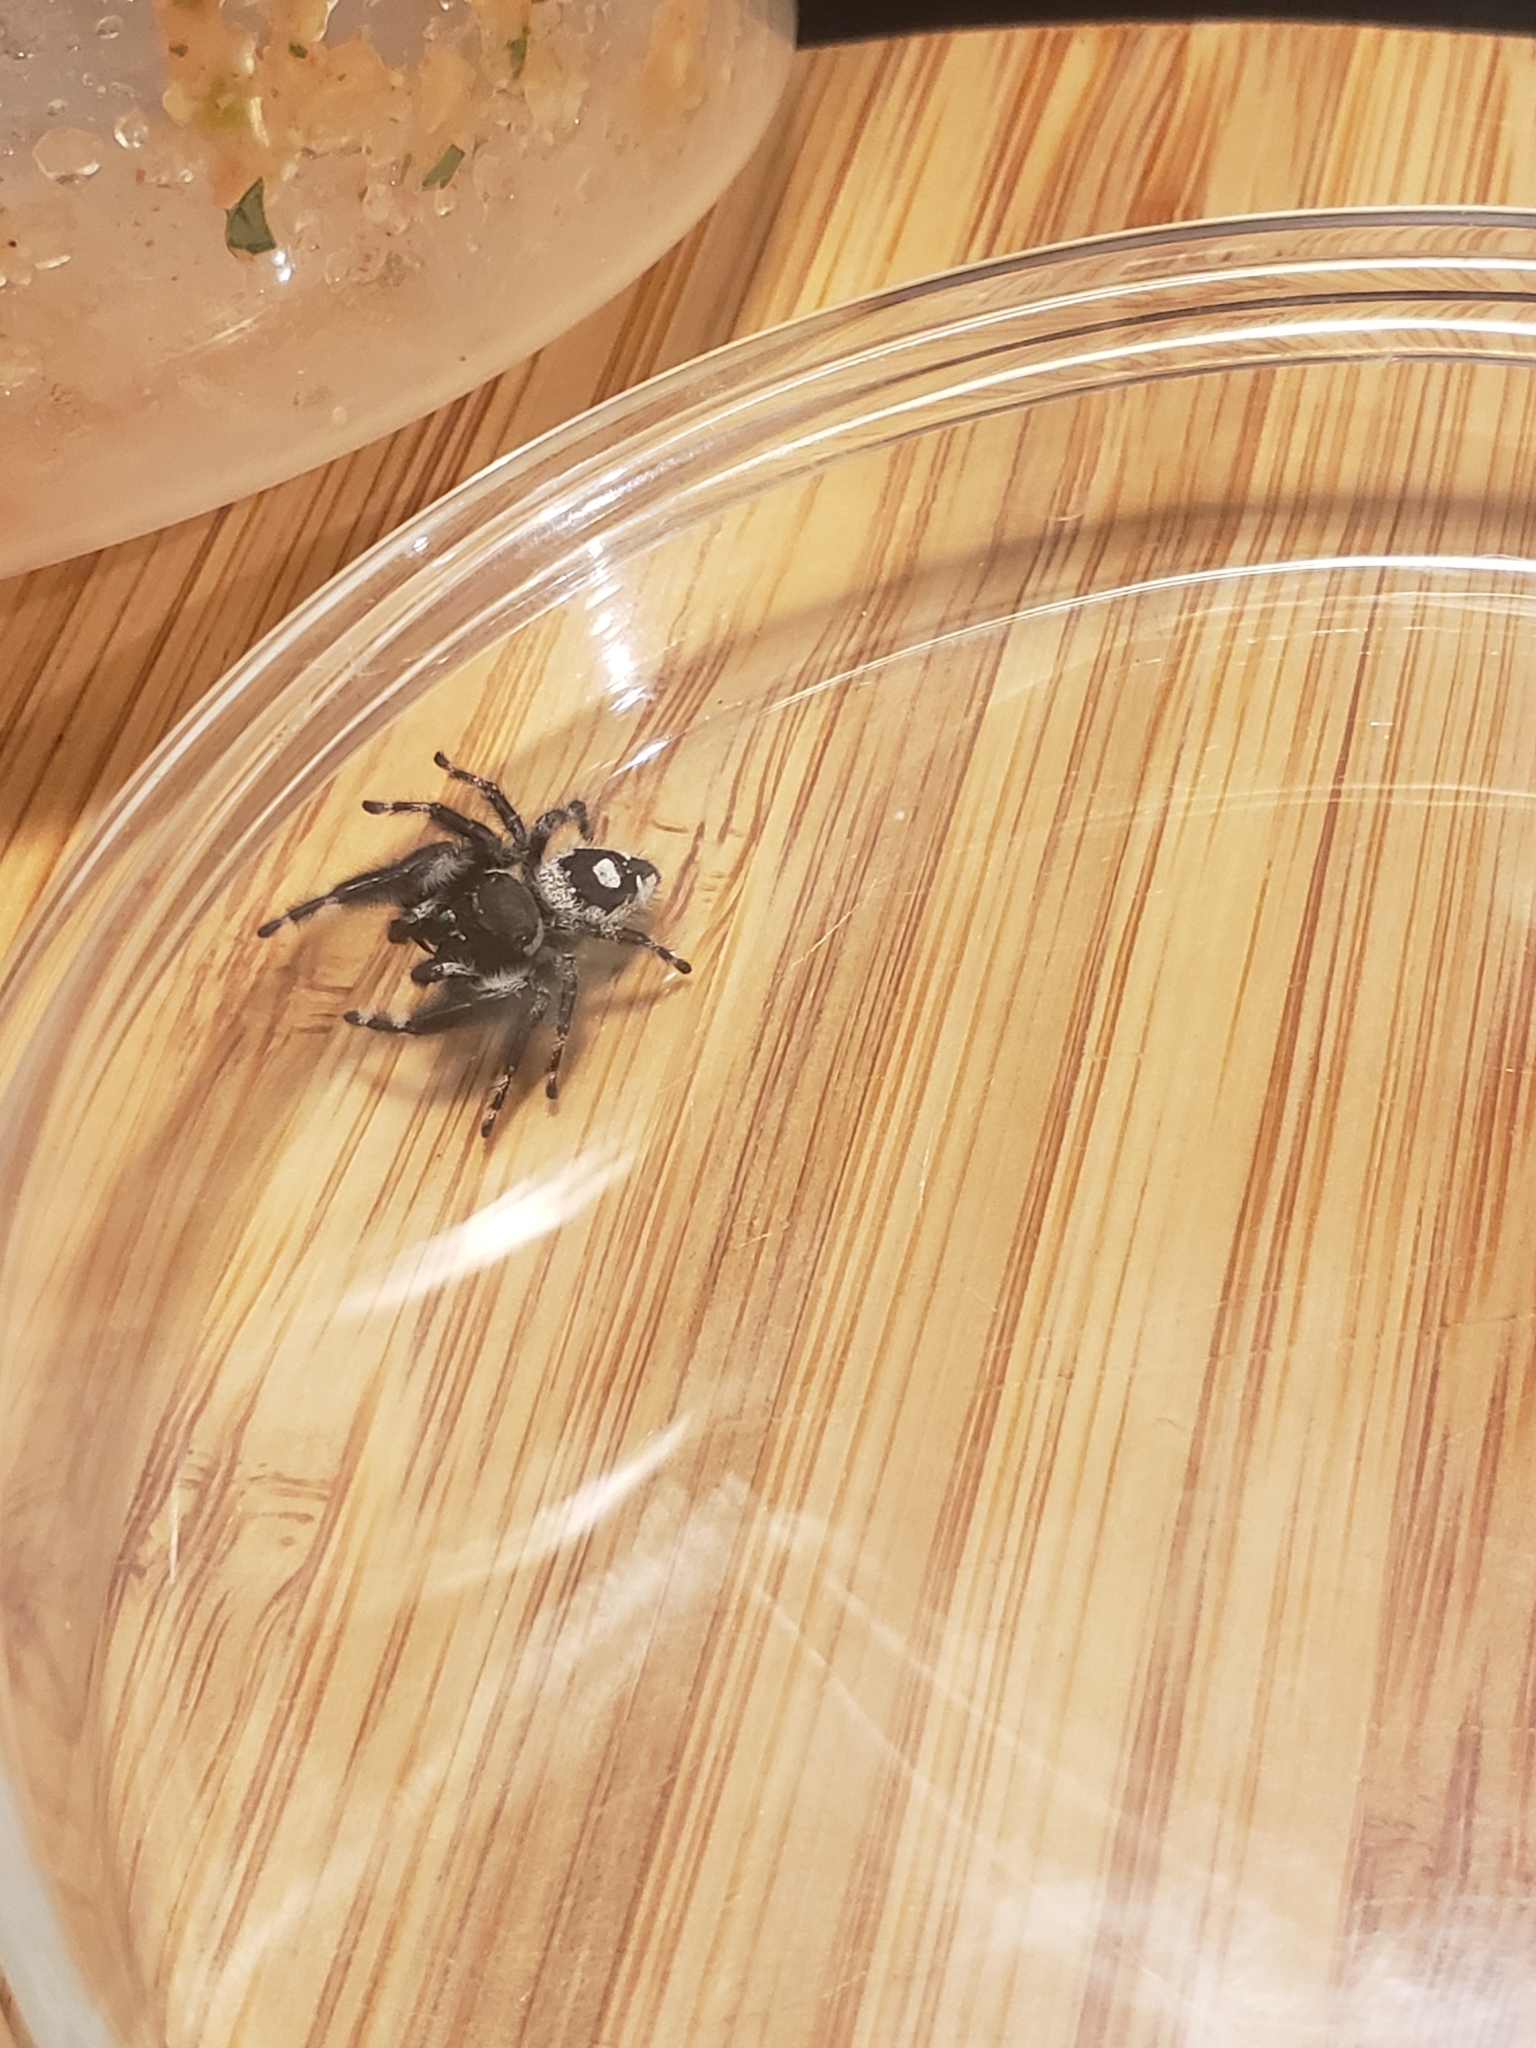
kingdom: Animalia
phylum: Arthropoda
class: Arachnida
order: Araneae
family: Salticidae
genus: Phidippus
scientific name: Phidippus audax
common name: Bold jumper
